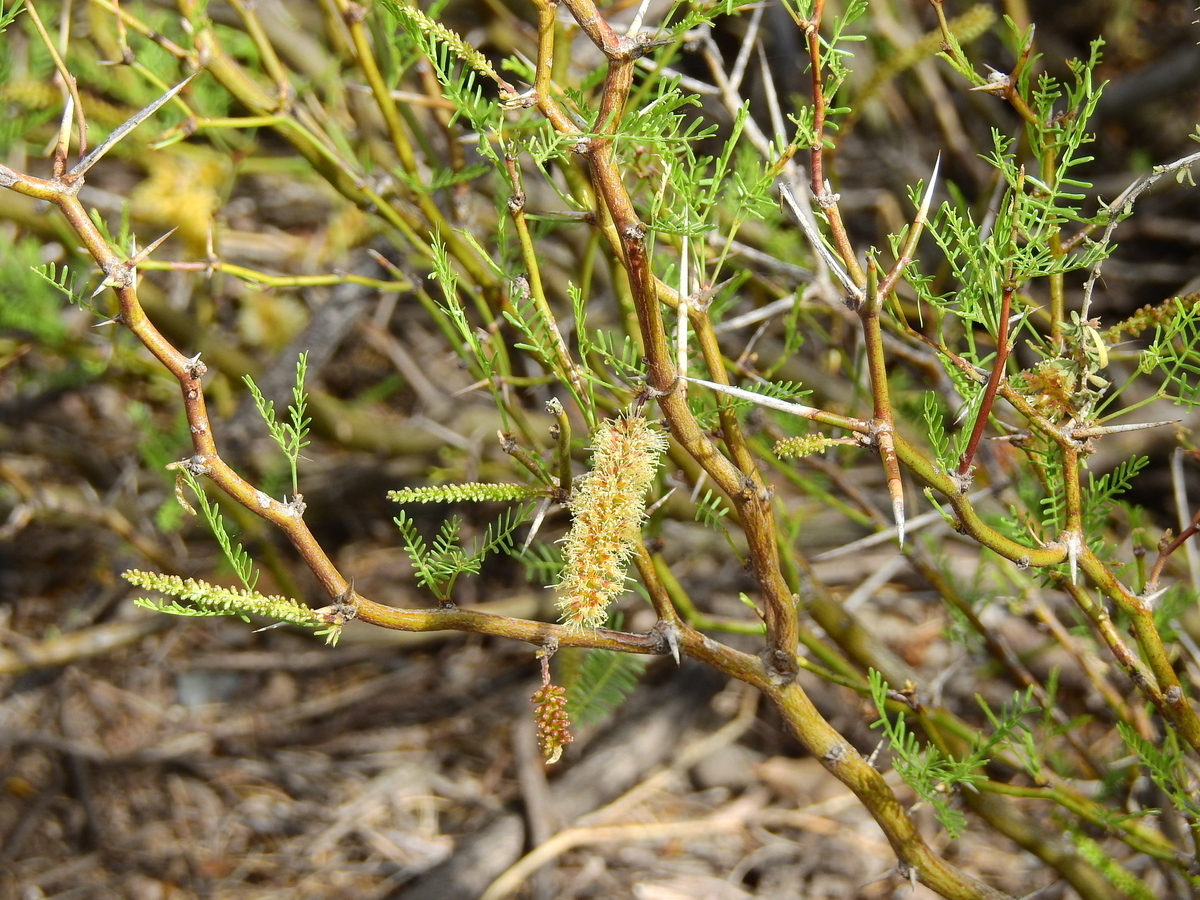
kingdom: Plantae
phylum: Tracheophyta
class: Magnoliopsida
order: Fabales
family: Fabaceae
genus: Prosopis
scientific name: Prosopis flexuosa
